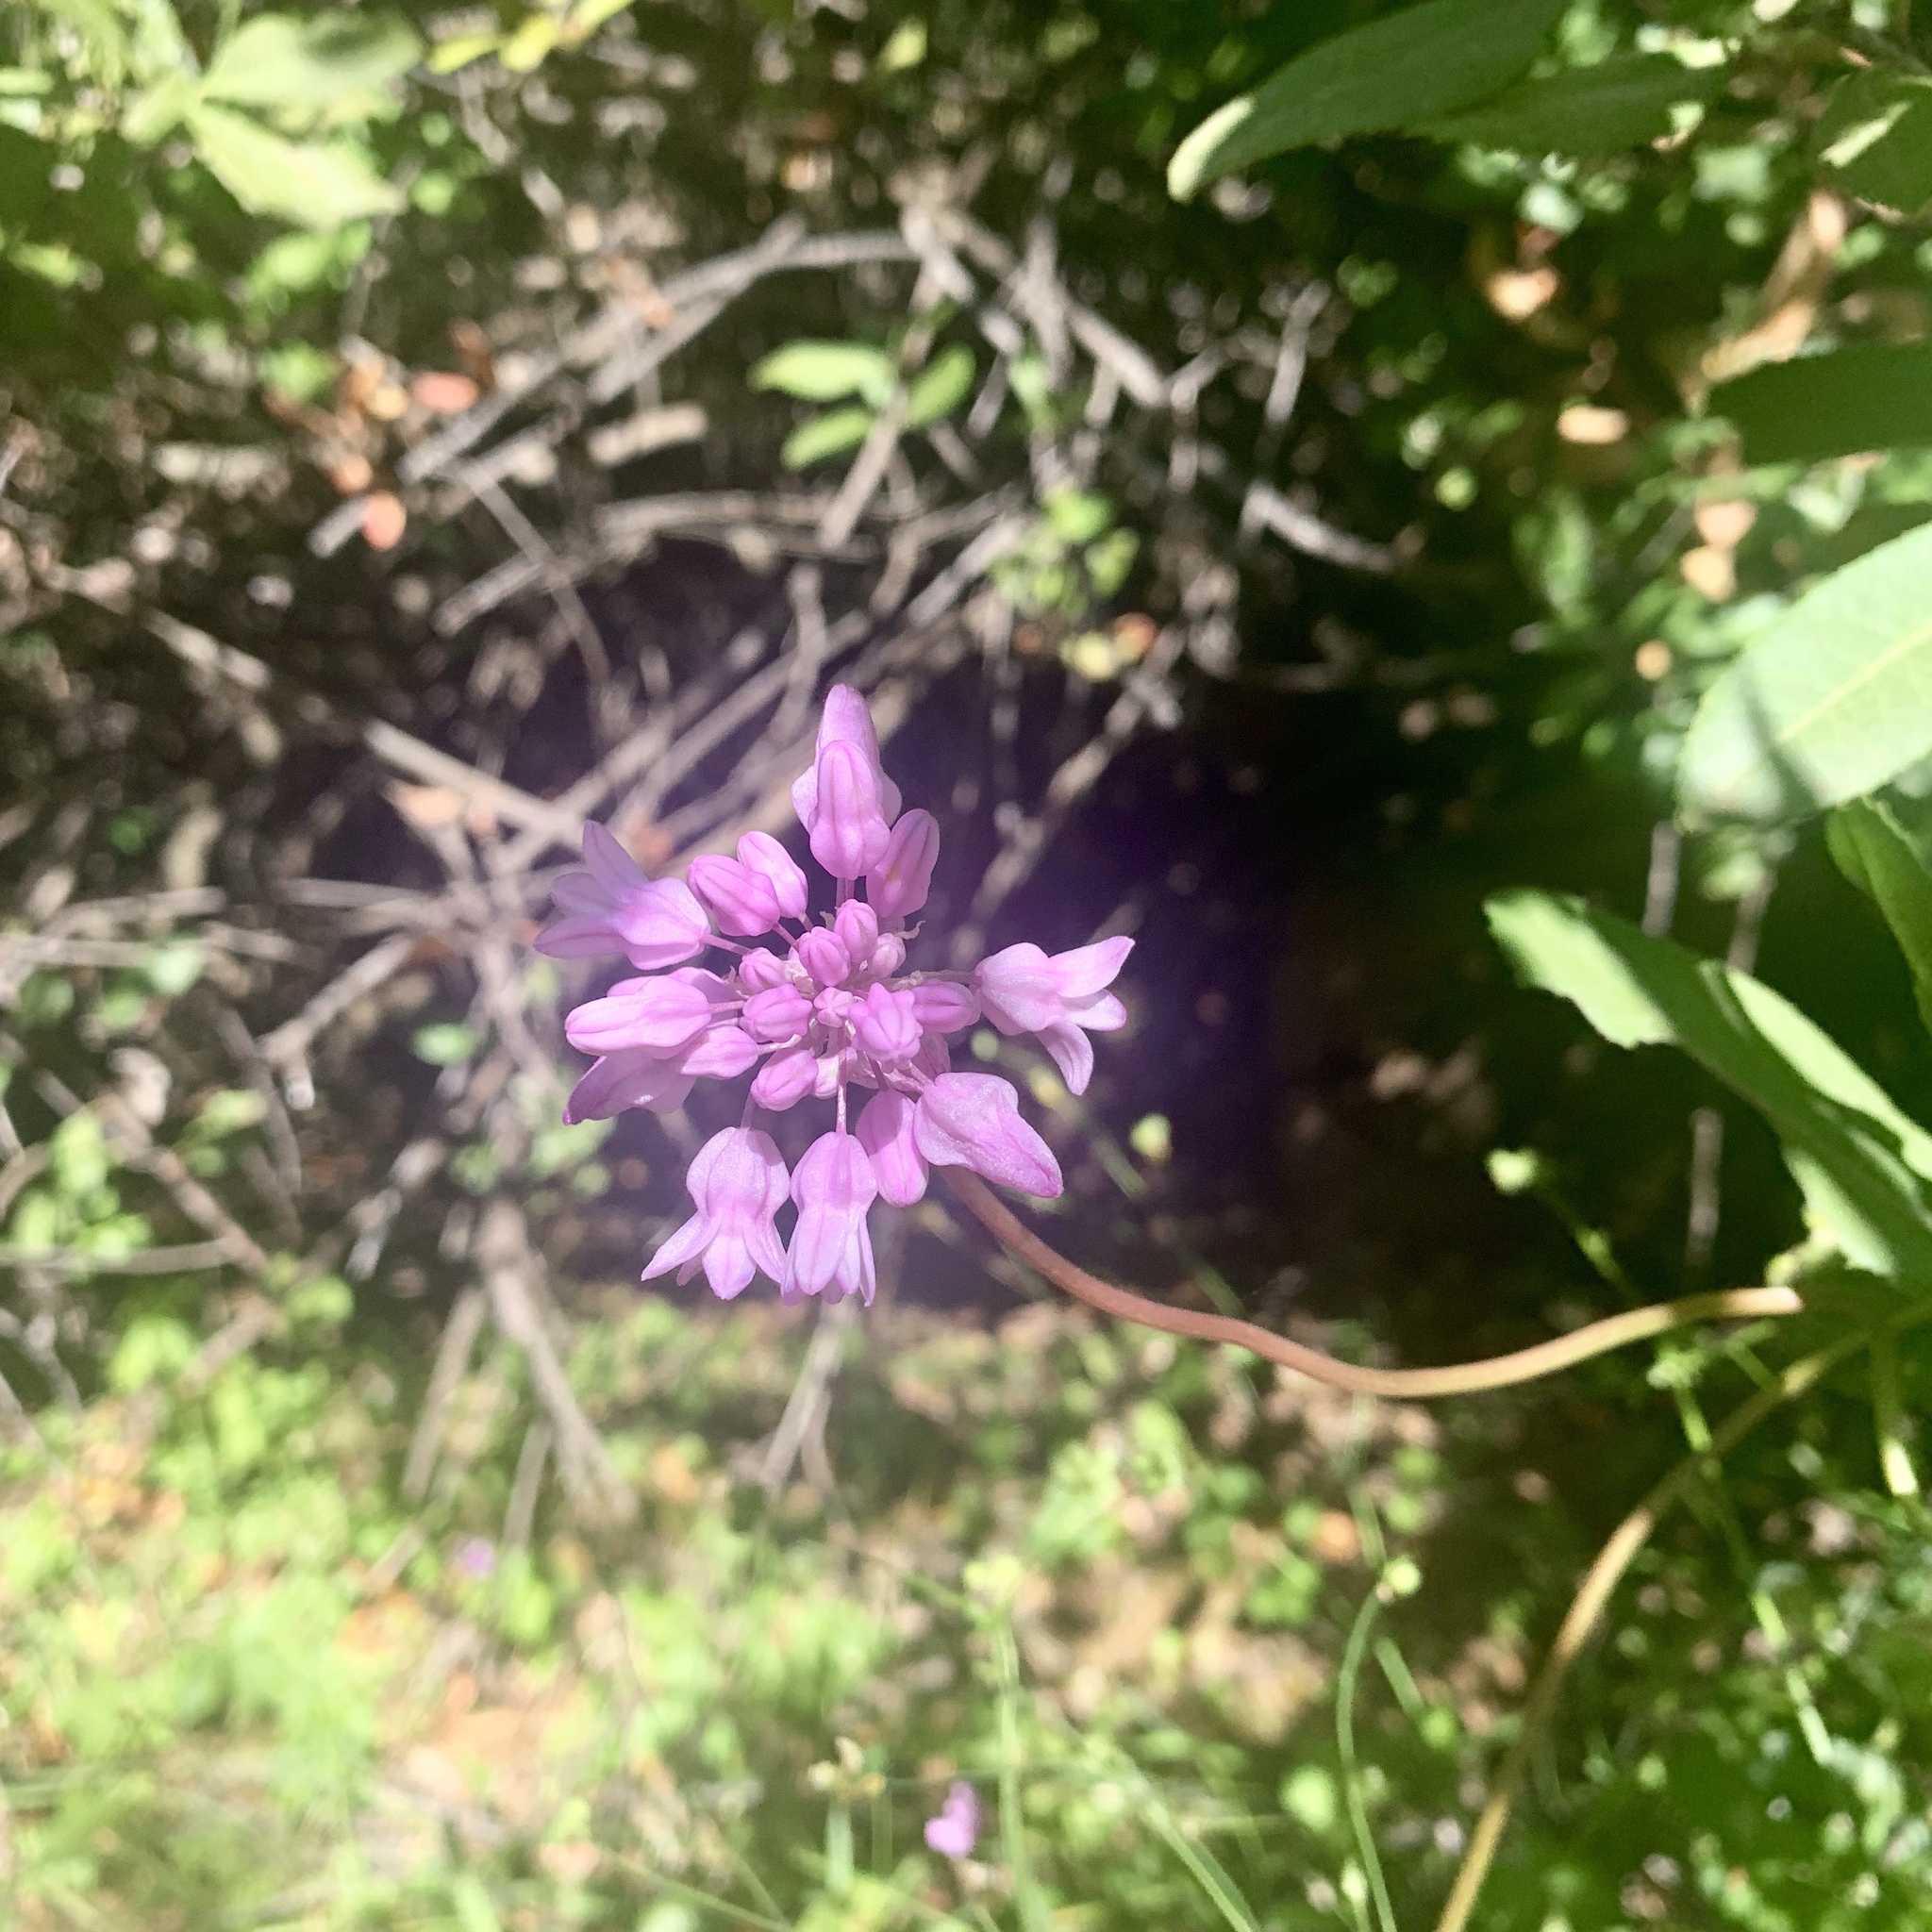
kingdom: Plantae
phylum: Tracheophyta
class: Liliopsida
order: Asparagales
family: Asparagaceae
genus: Dichelostemma
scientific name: Dichelostemma volubile
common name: Trining brodiaea
